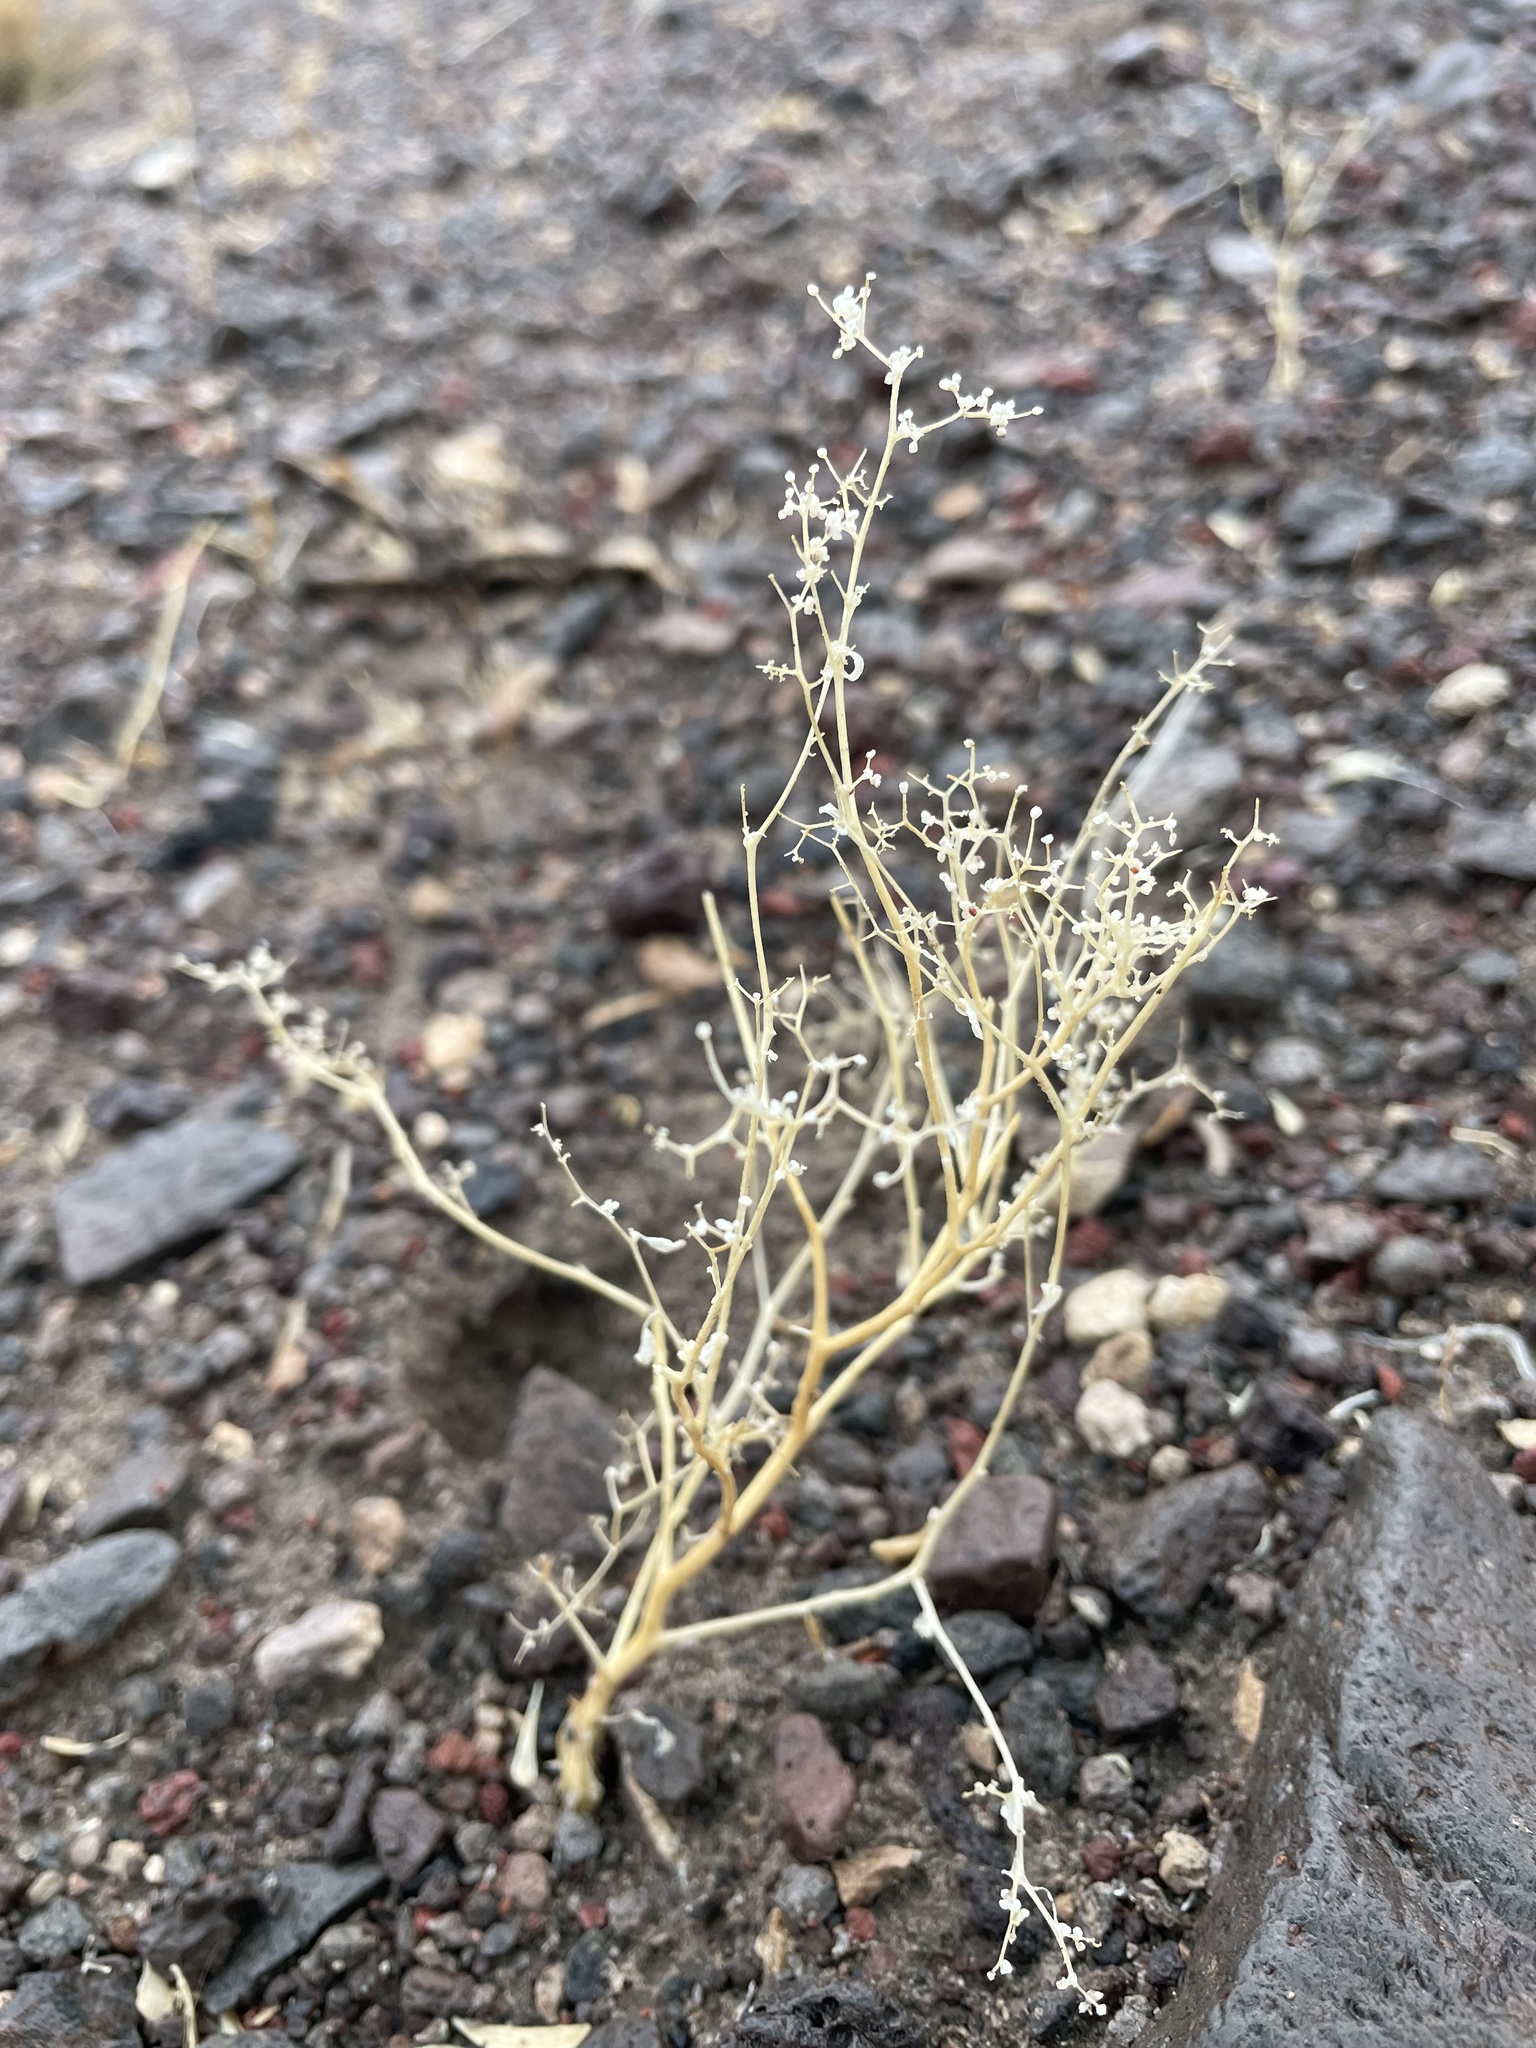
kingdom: Plantae
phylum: Tracheophyta
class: Magnoliopsida
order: Caryophyllales
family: Amaranthaceae
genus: Chenopodium
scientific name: Chenopodium nevadense
